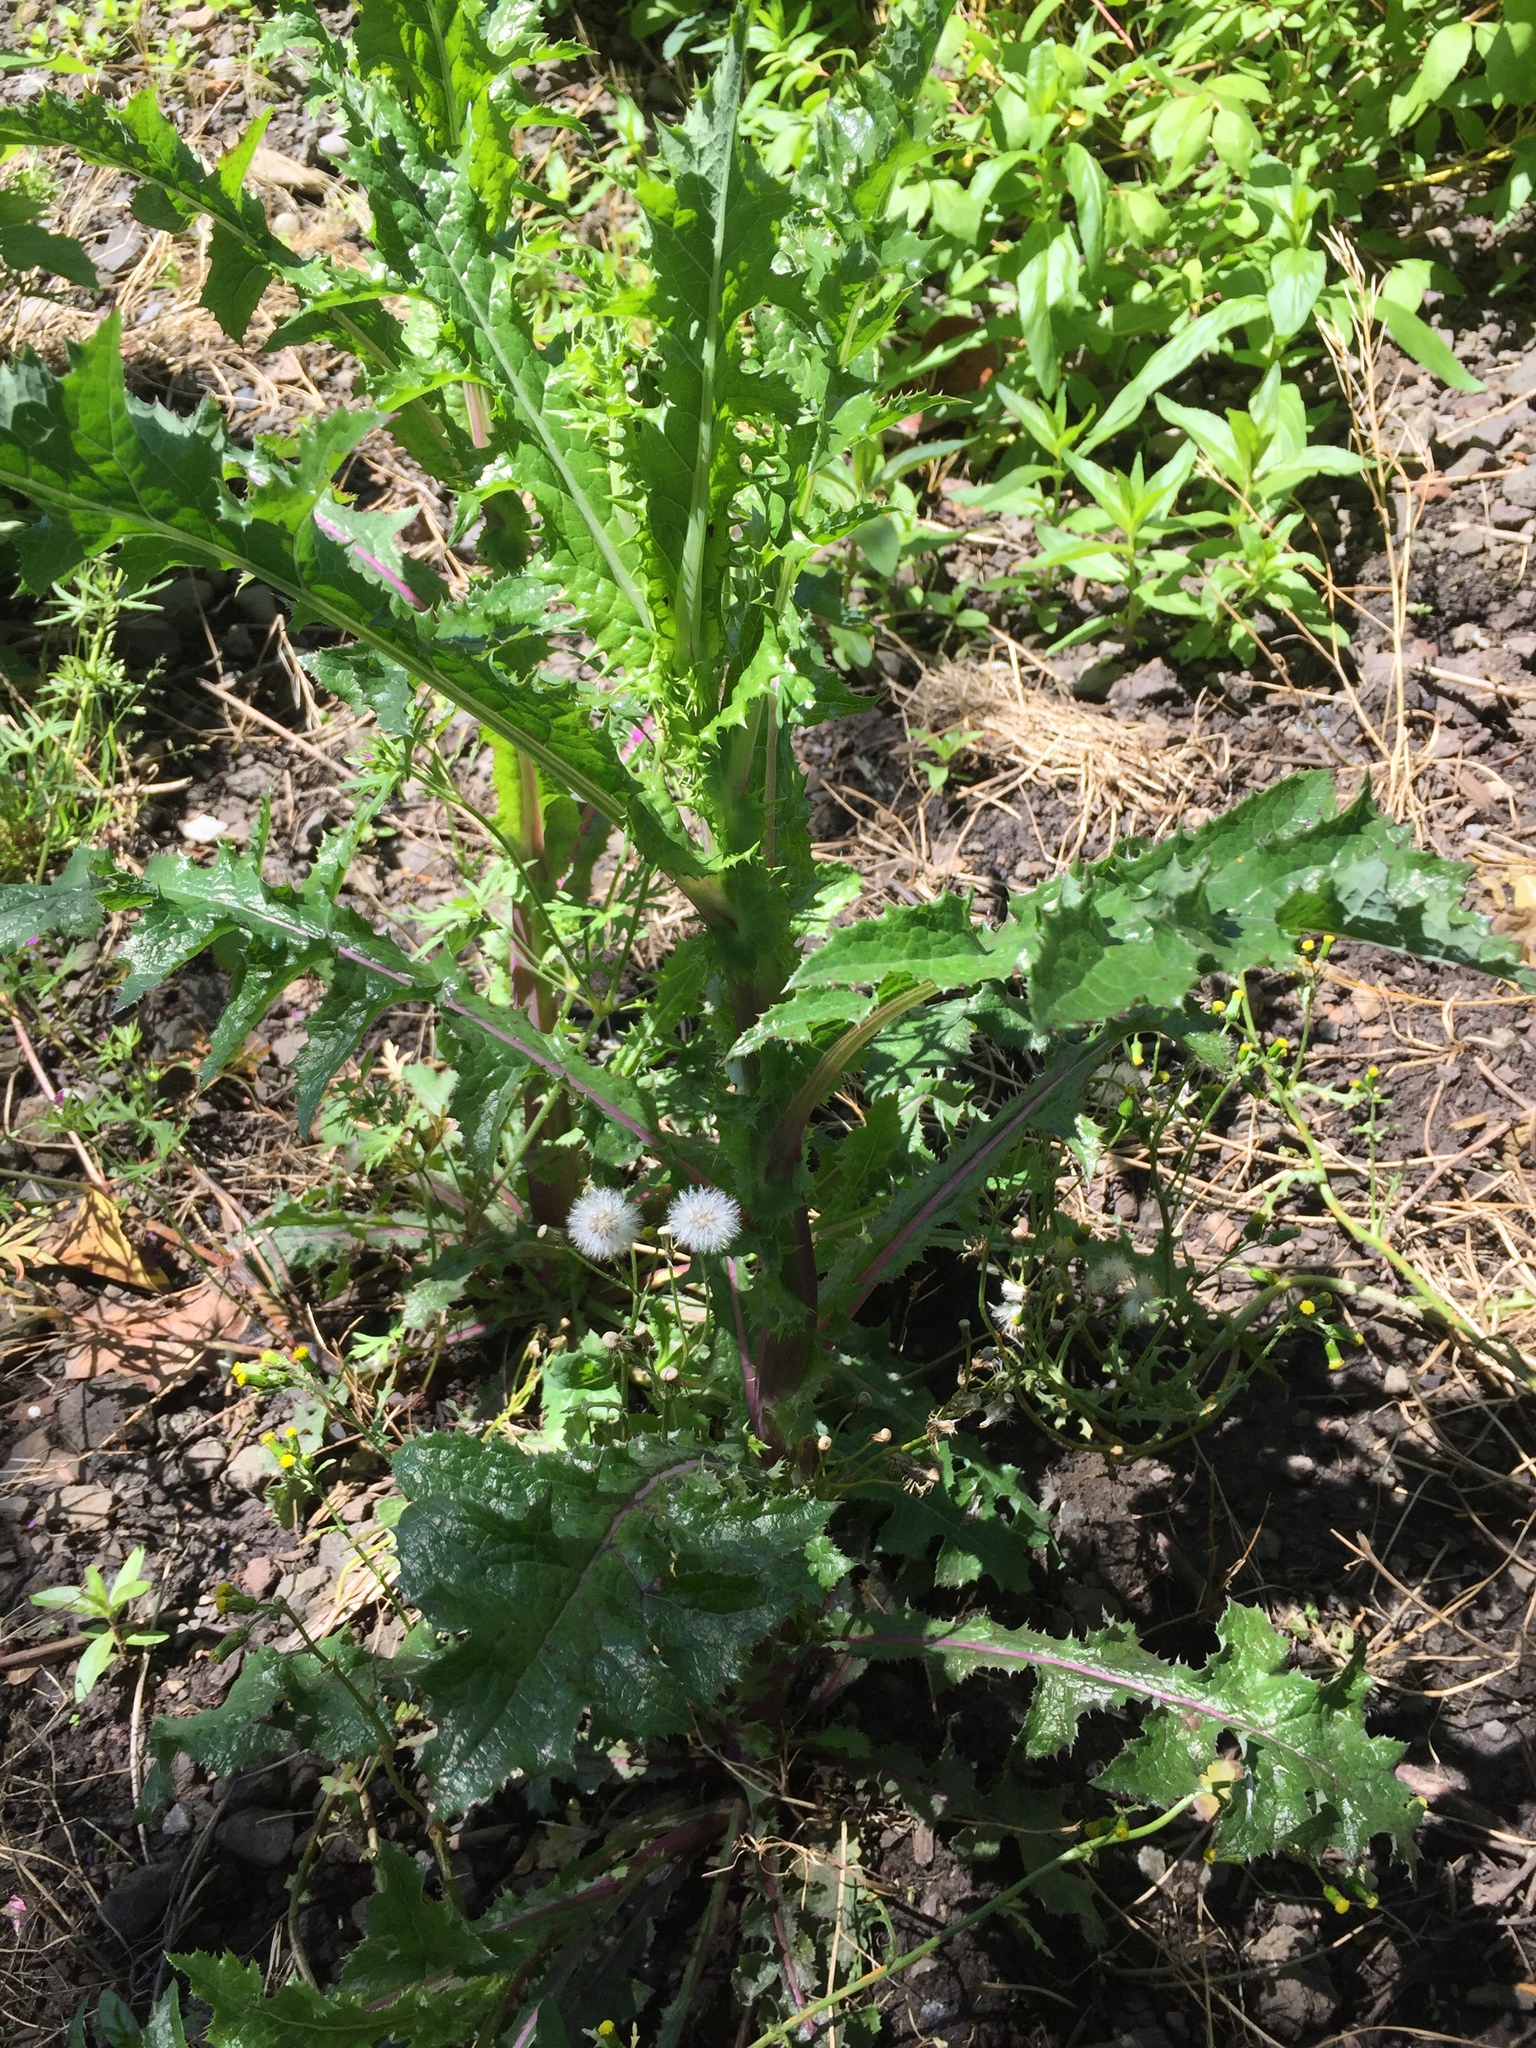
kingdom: Plantae
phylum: Tracheophyta
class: Magnoliopsida
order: Asterales
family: Asteraceae
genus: Sonchus
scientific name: Sonchus asper
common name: Prickly sow-thistle
